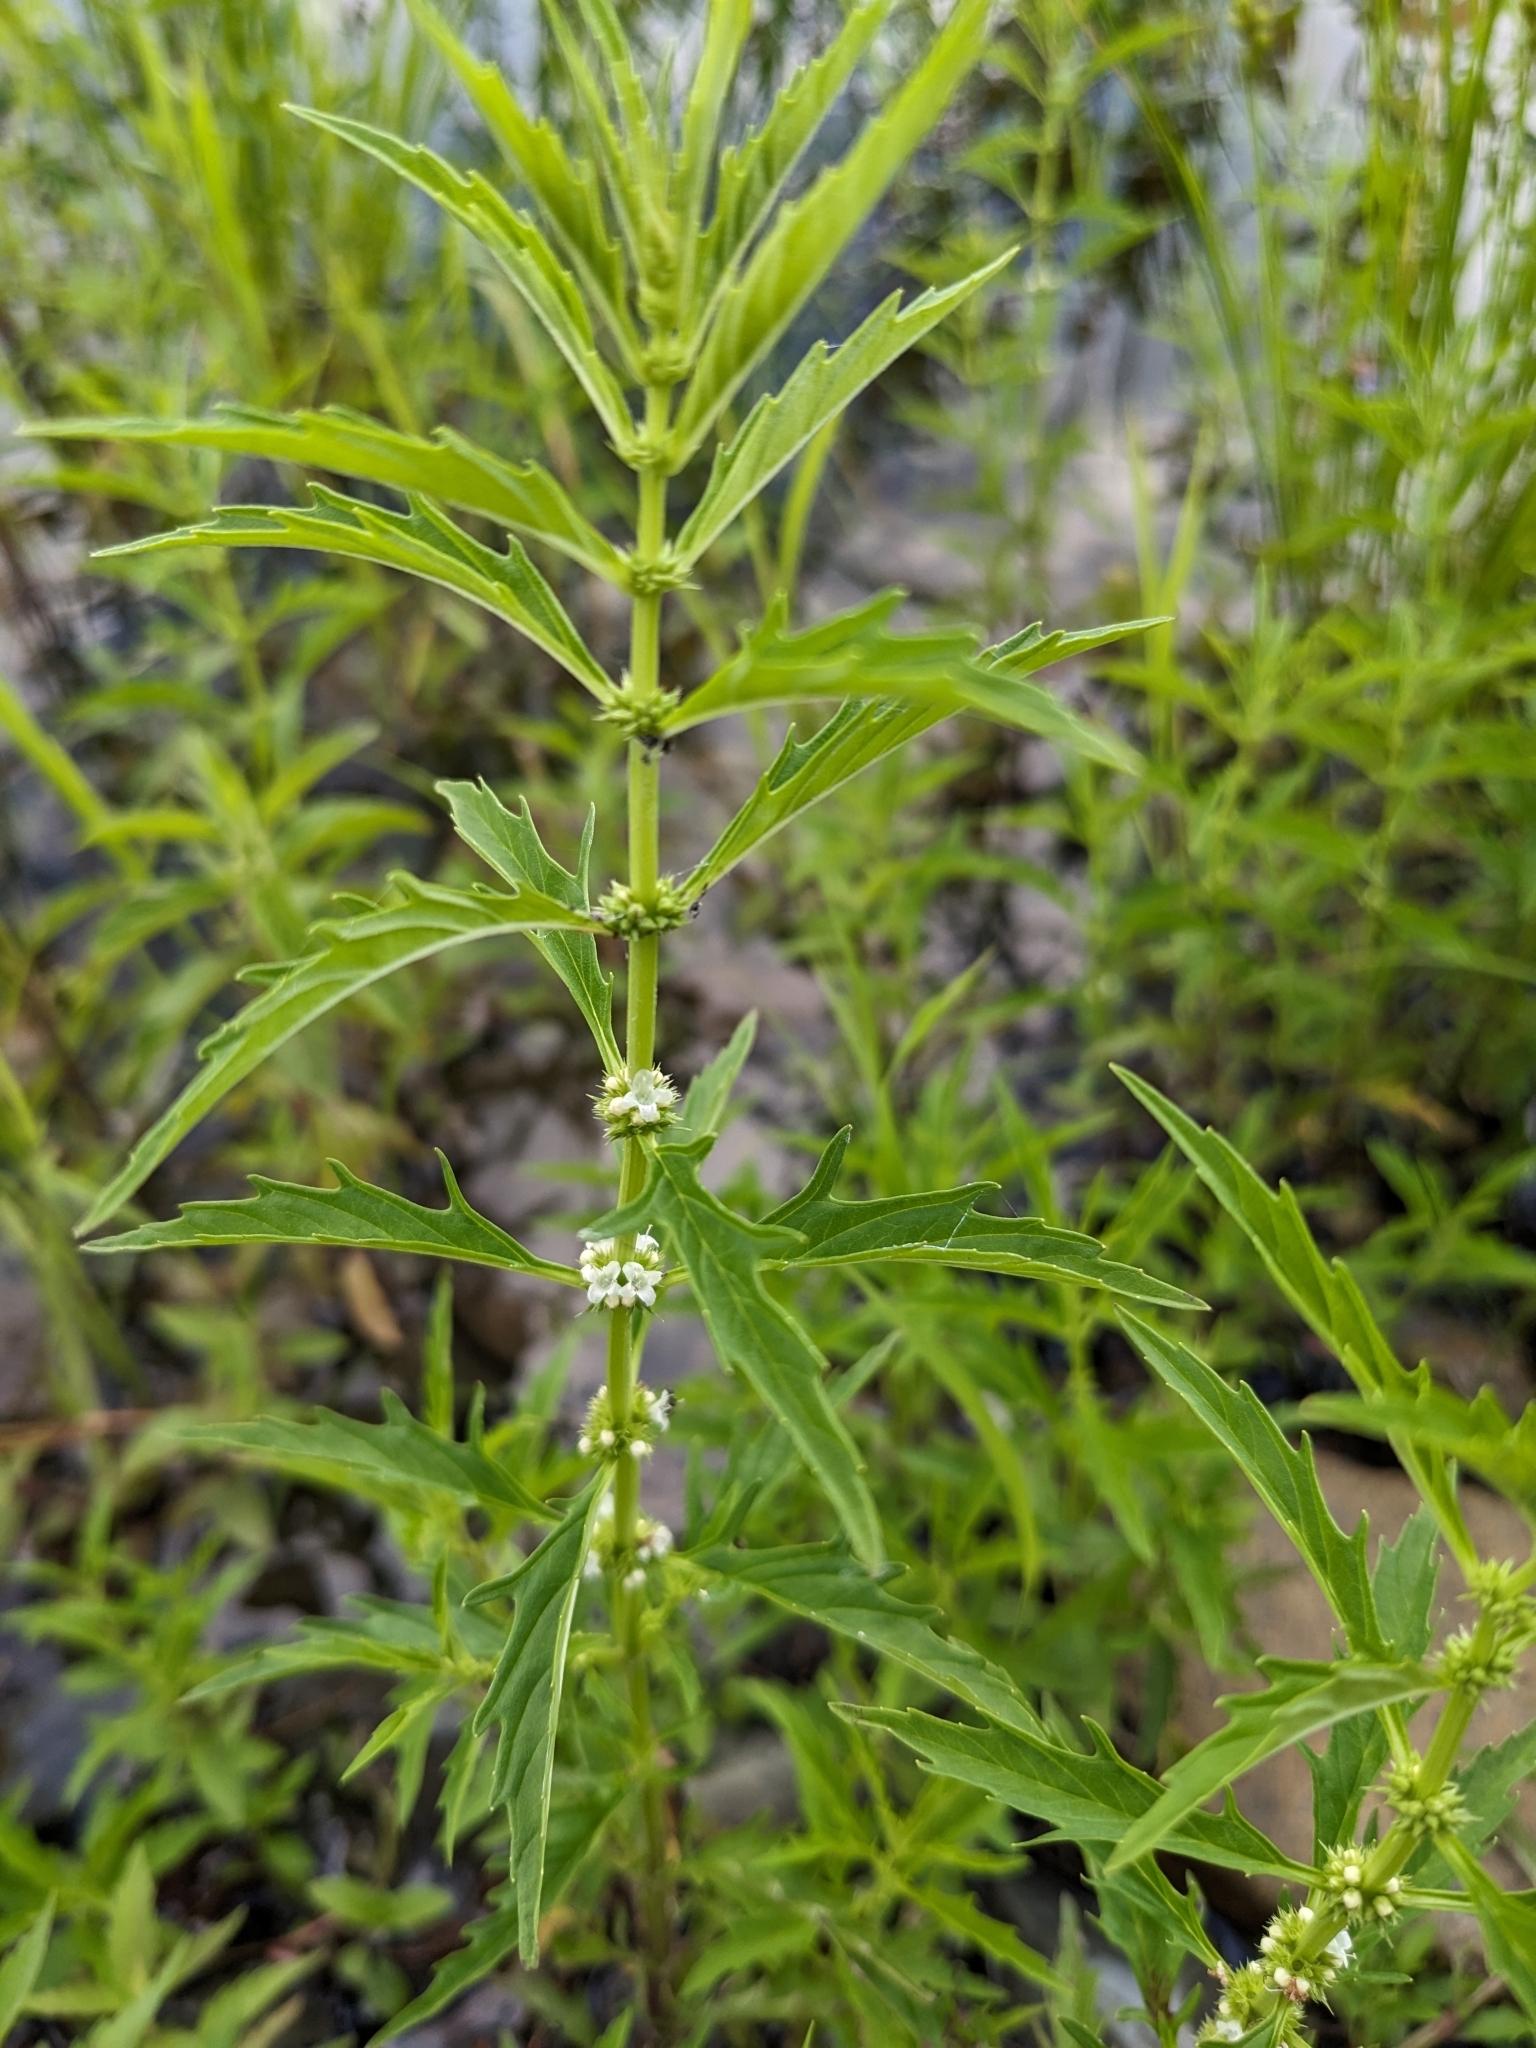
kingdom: Plantae
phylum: Tracheophyta
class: Magnoliopsida
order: Lamiales
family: Lamiaceae
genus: Lycopus
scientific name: Lycopus americanus
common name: American bugleweed
